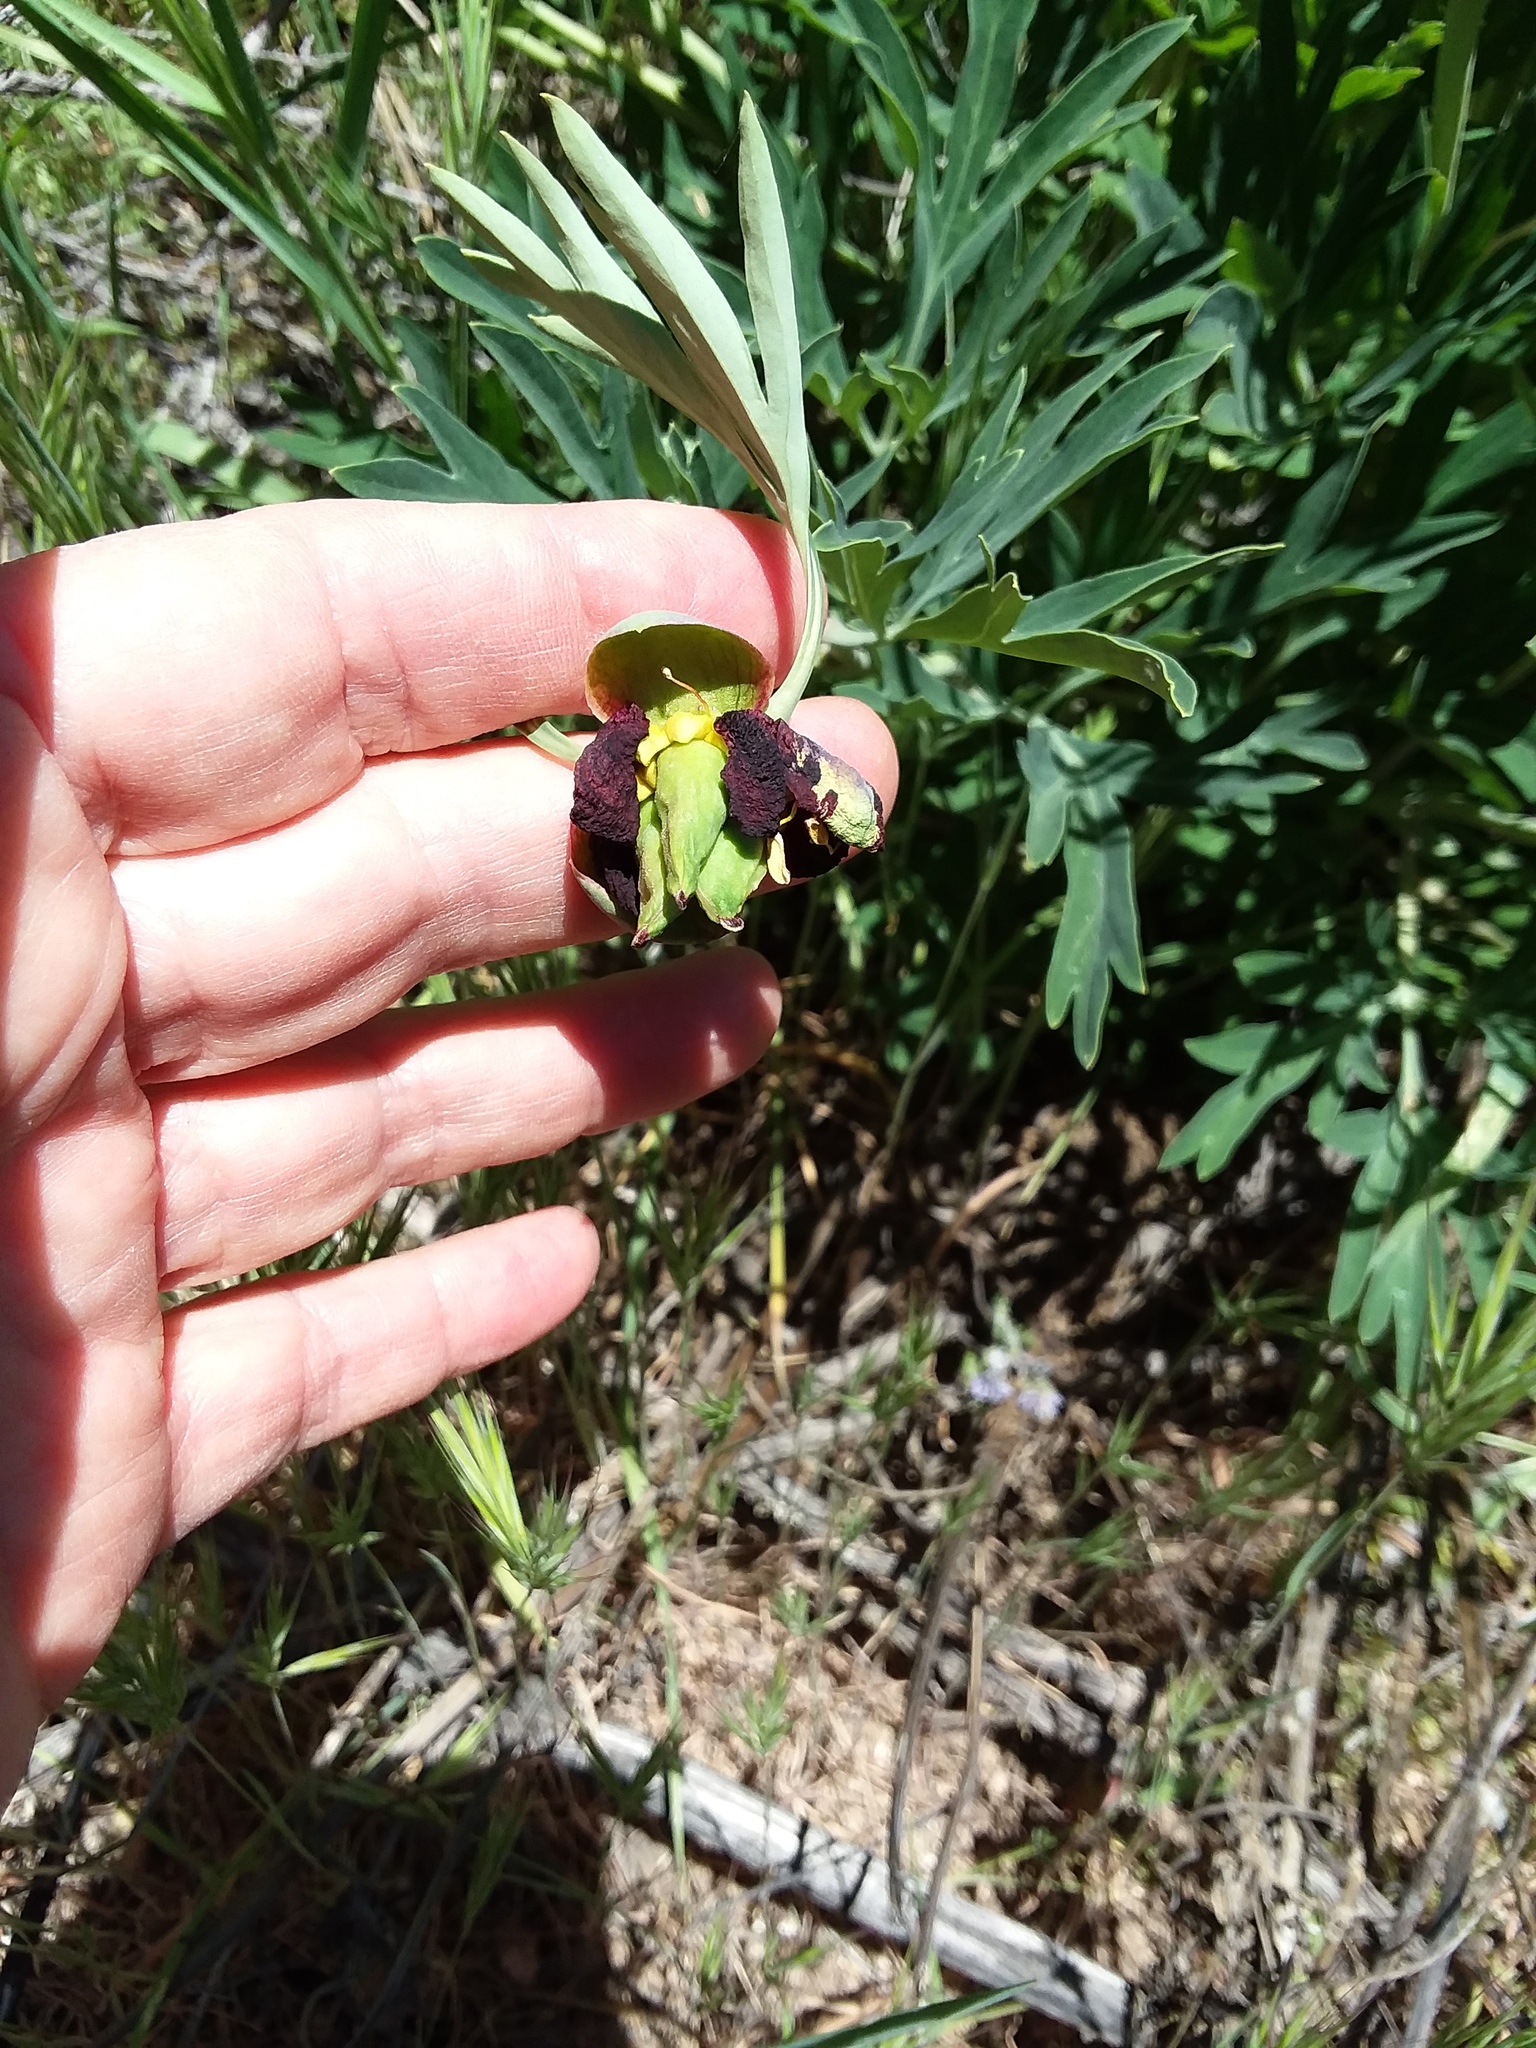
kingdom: Plantae
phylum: Tracheophyta
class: Magnoliopsida
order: Saxifragales
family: Paeoniaceae
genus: Paeonia
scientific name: Paeonia californica
